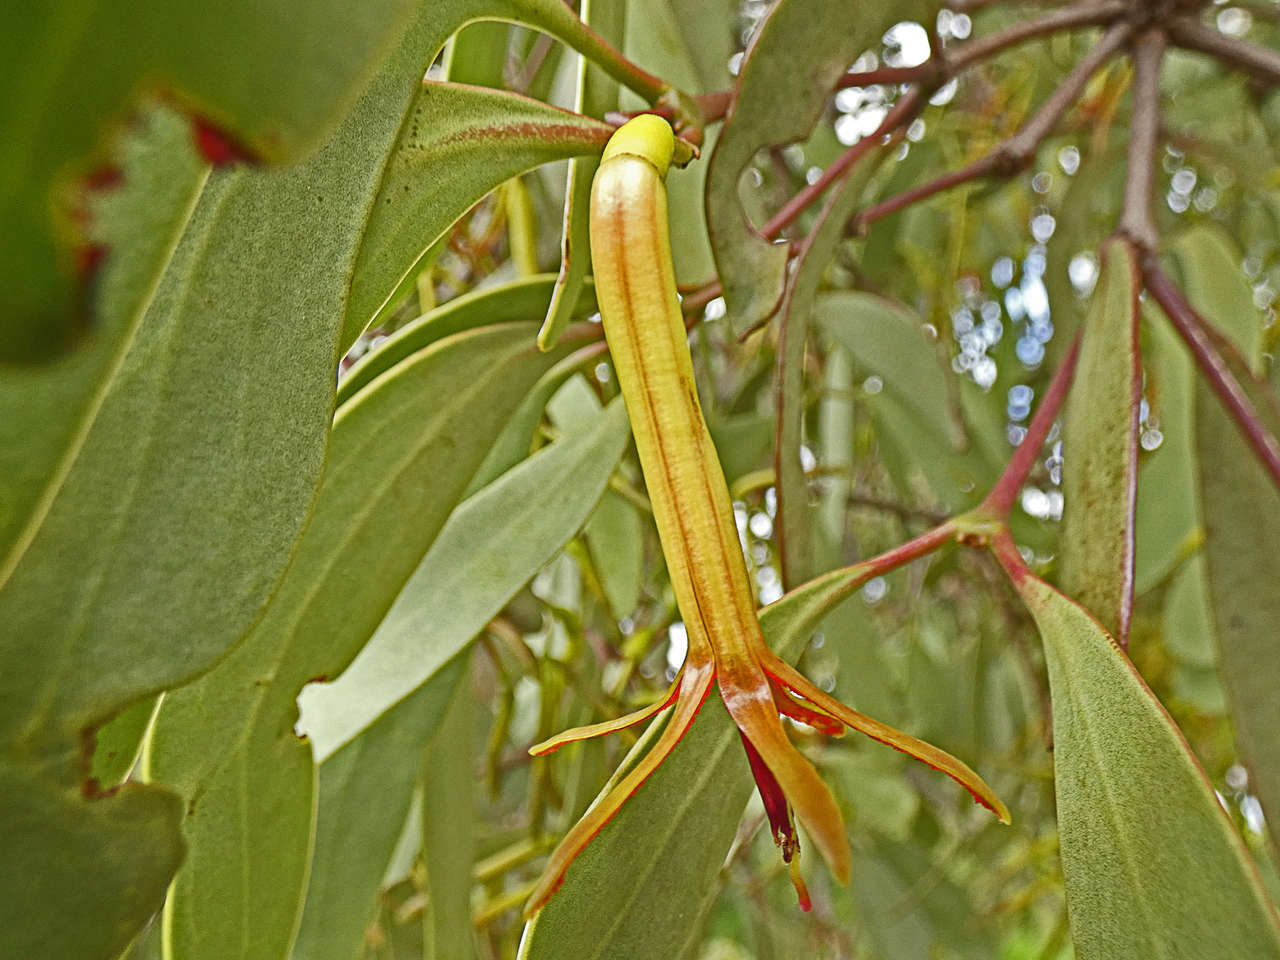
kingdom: Plantae
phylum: Tracheophyta
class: Magnoliopsida
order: Santalales
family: Loranthaceae
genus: Muellerina
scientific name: Muellerina eucalyptoides
